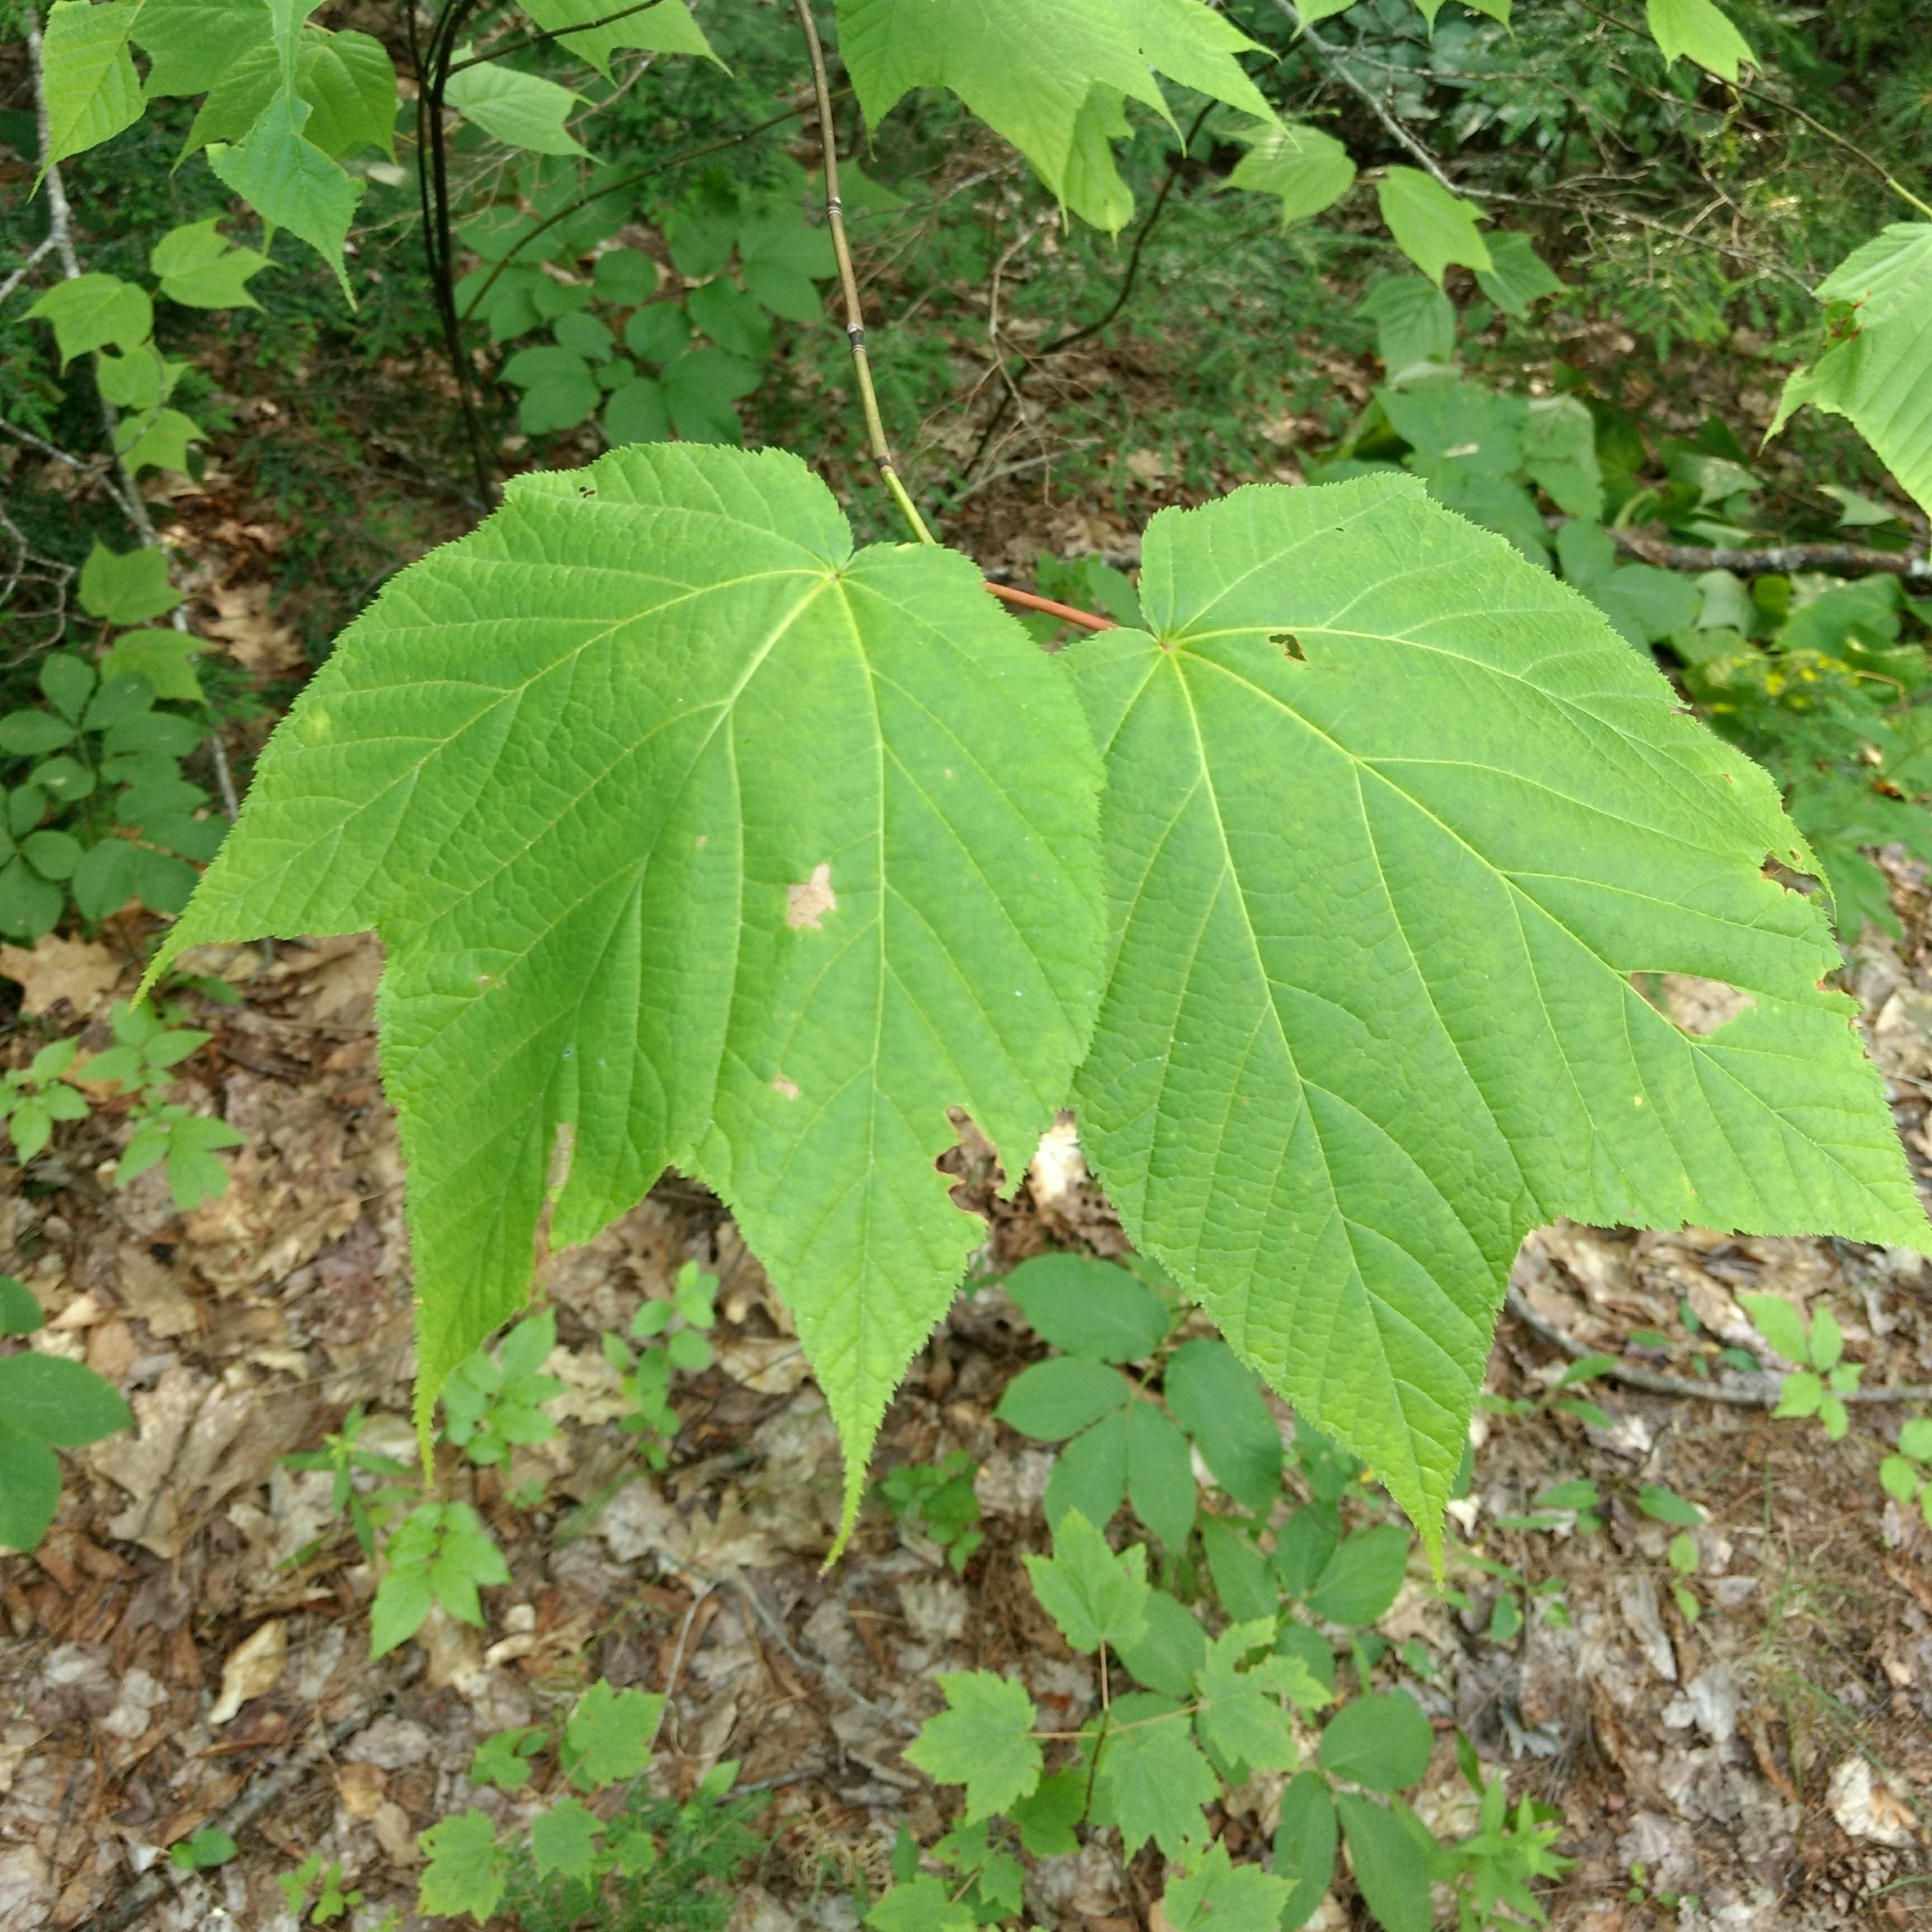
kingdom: Plantae
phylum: Tracheophyta
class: Magnoliopsida
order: Sapindales
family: Sapindaceae
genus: Acer
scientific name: Acer pensylvanicum
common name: Moosewood
